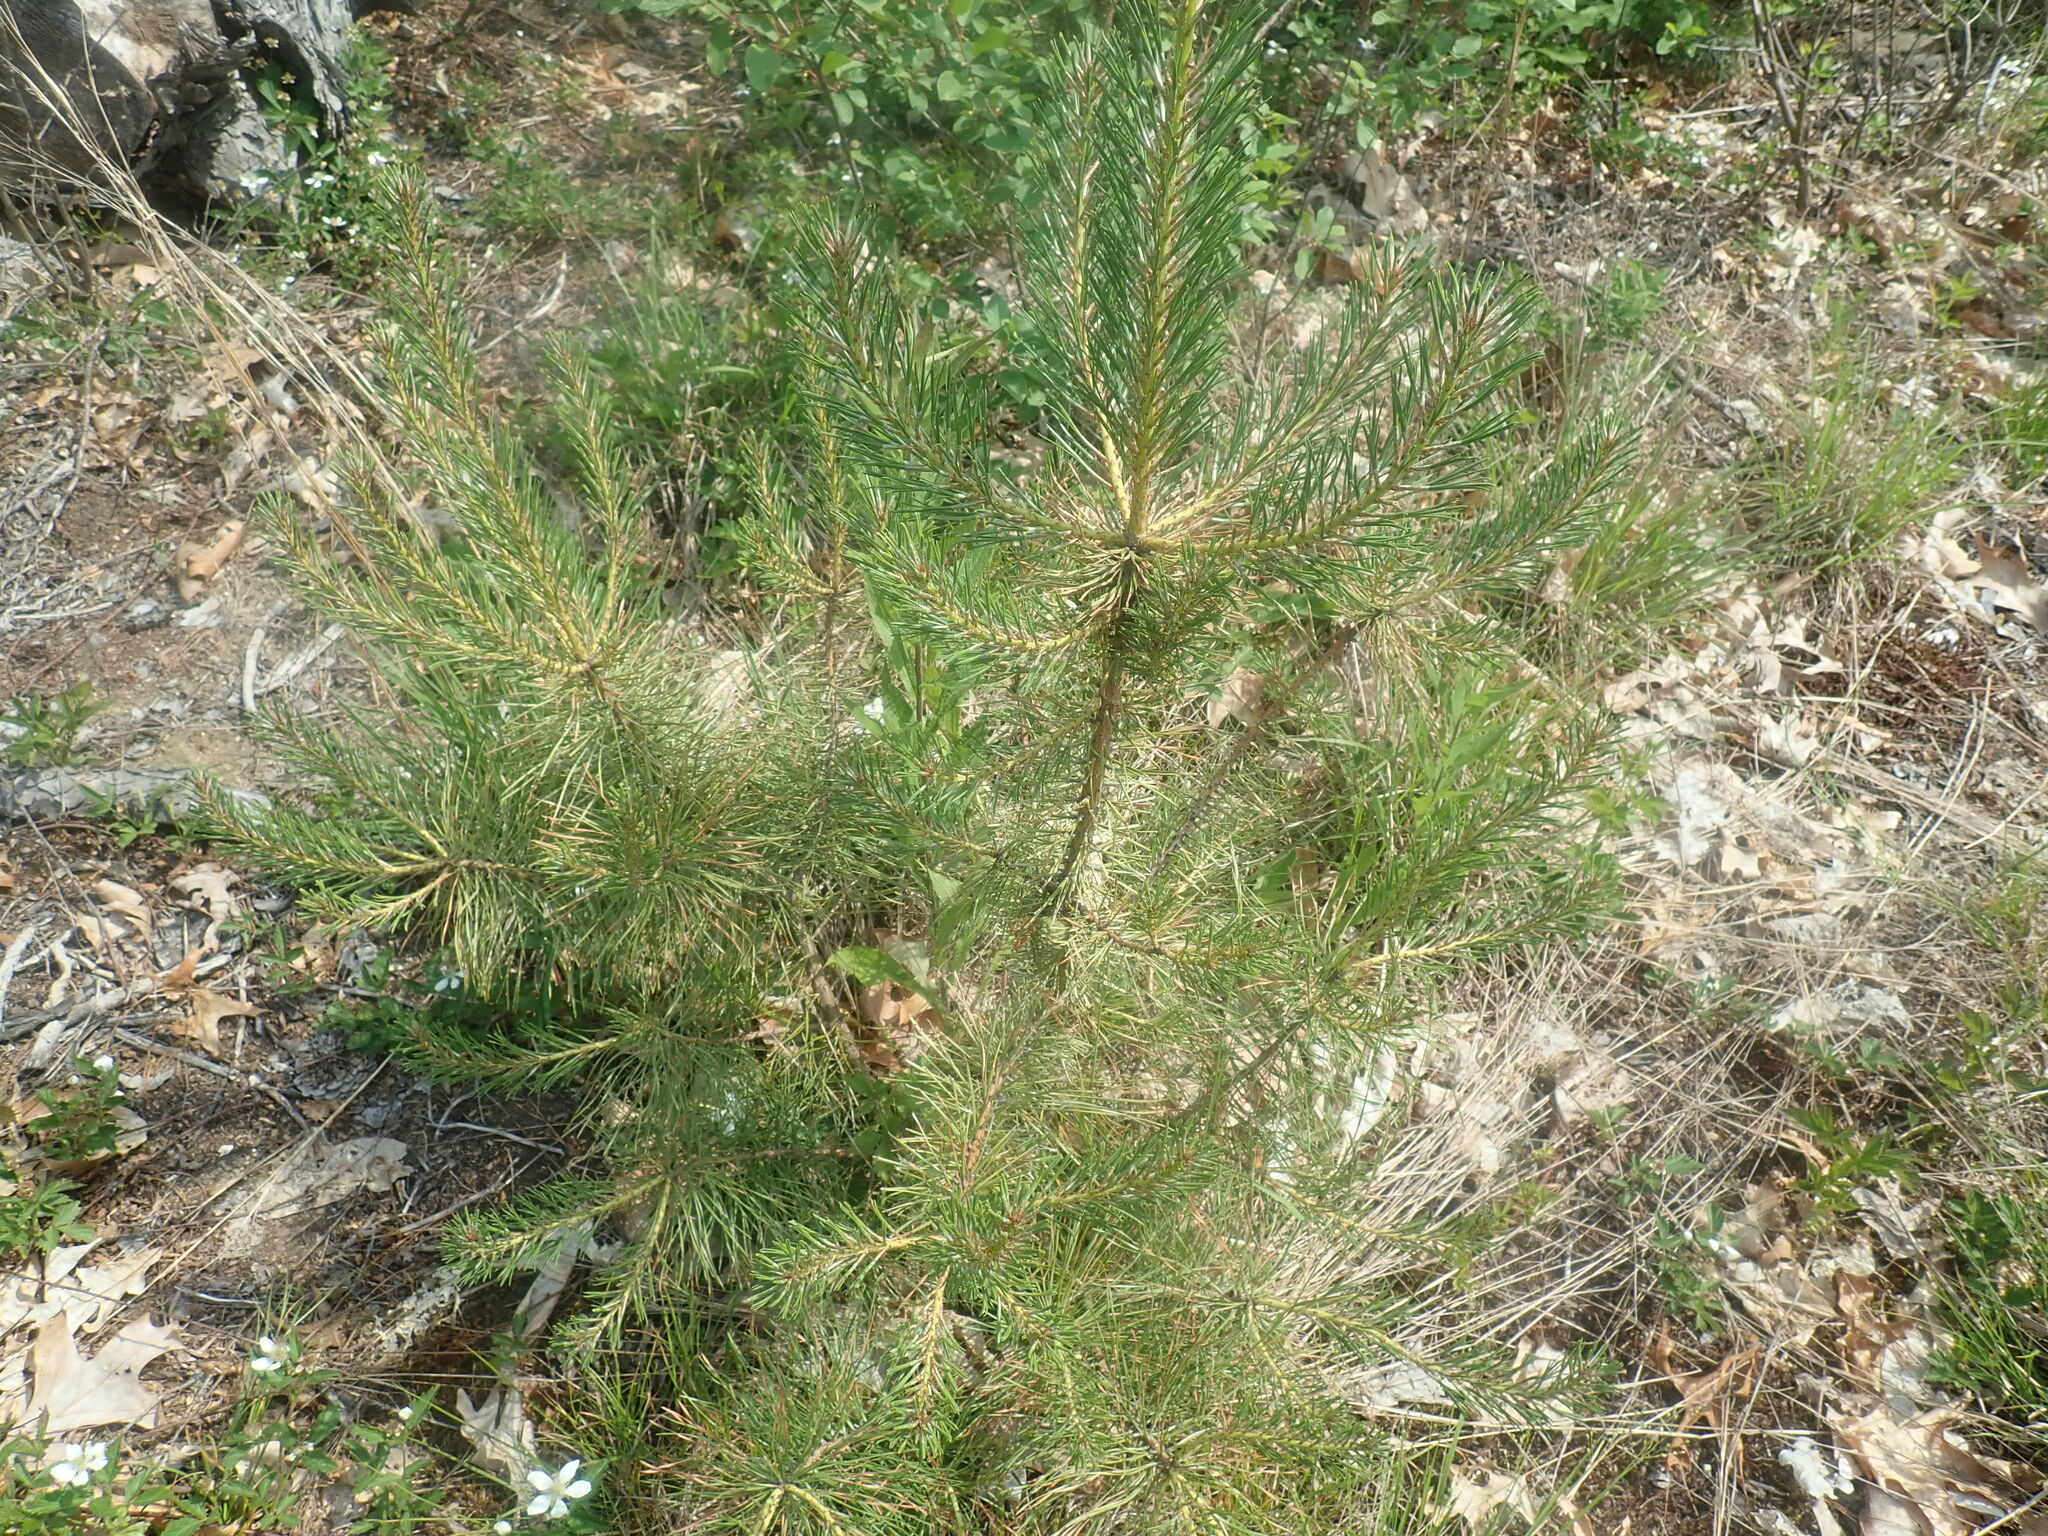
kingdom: Plantae
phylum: Tracheophyta
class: Pinopsida
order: Pinales
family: Pinaceae
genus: Pinus
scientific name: Pinus rigida
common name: Pitch pine
